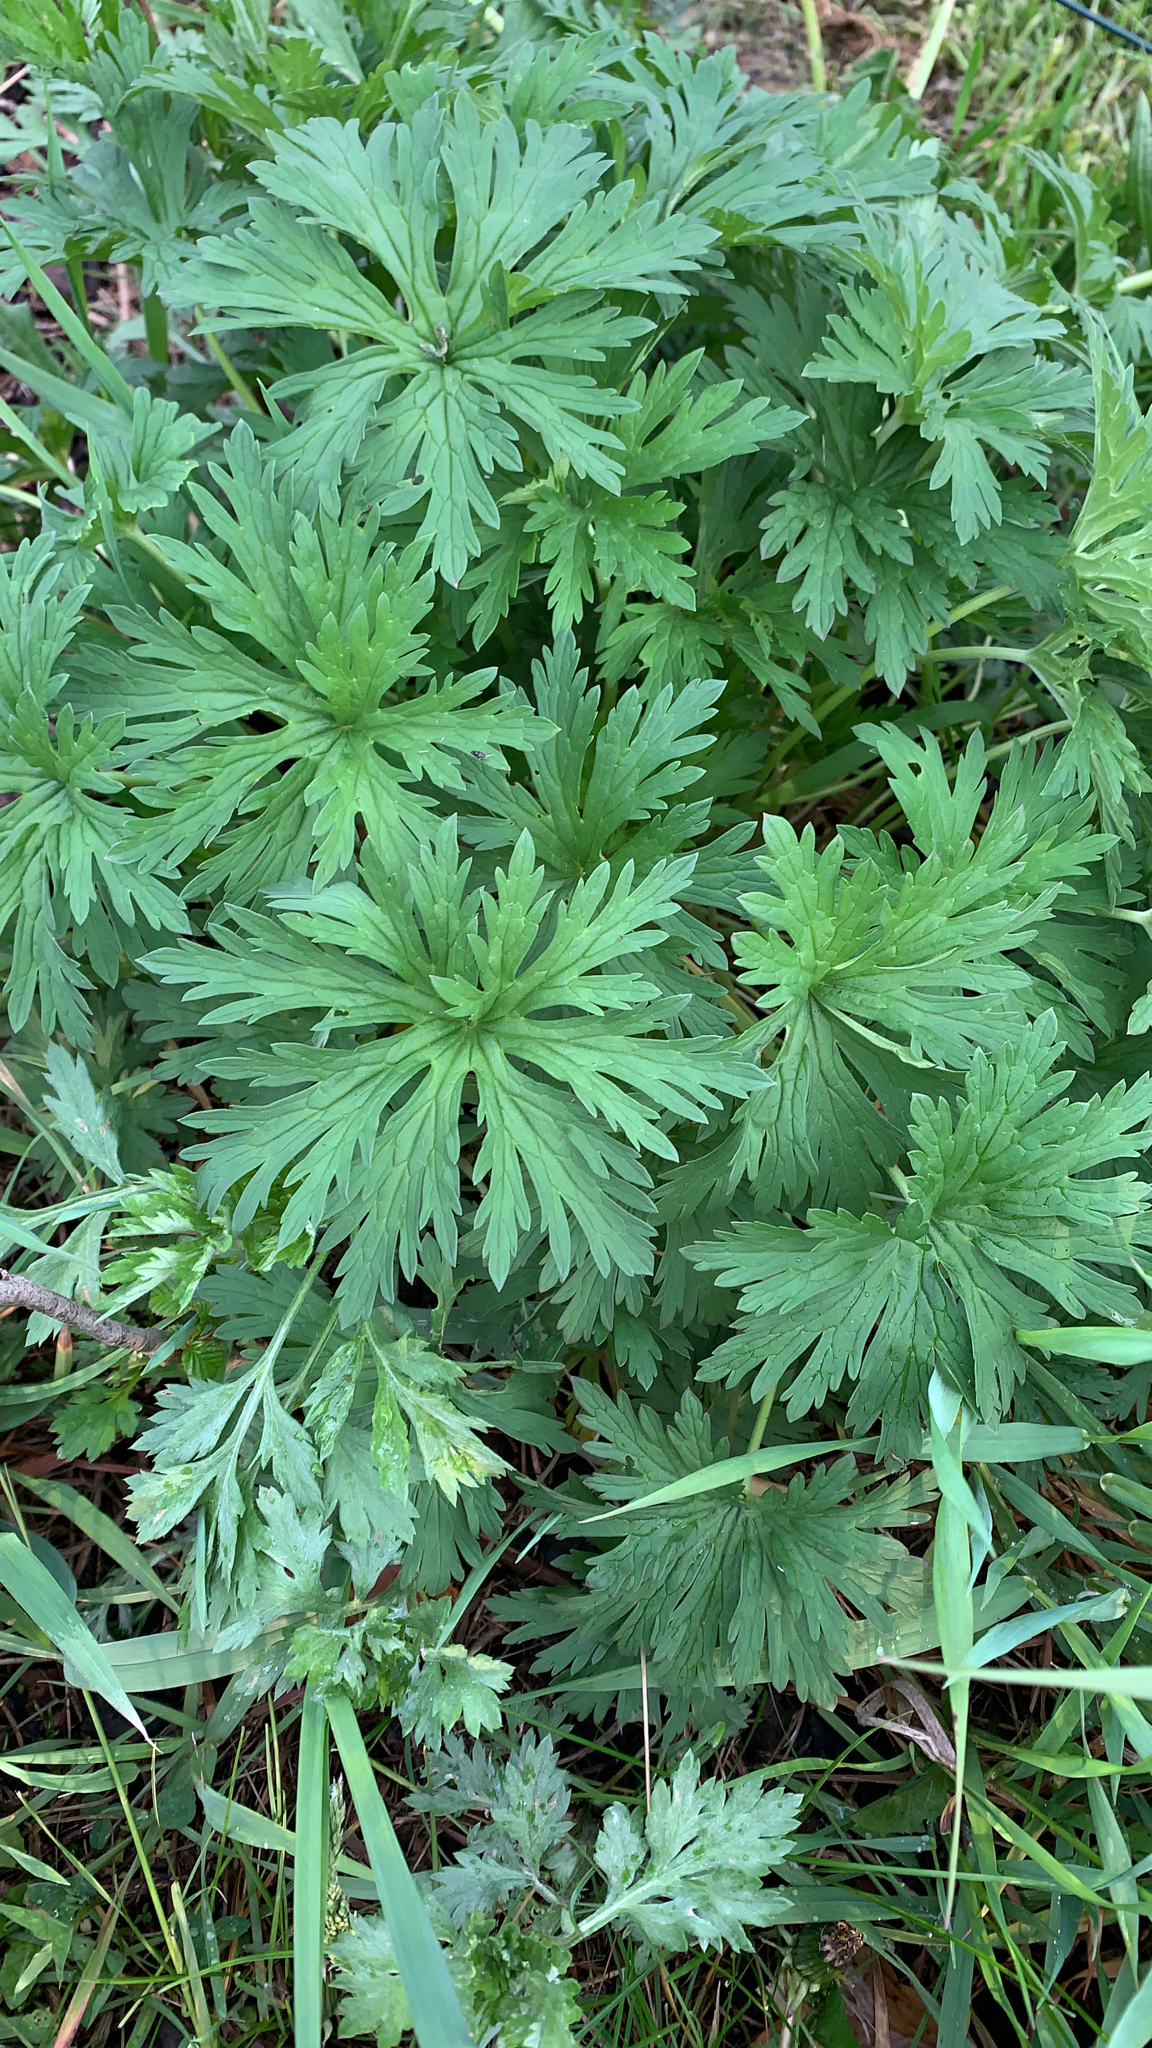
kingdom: Plantae
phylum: Tracheophyta
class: Magnoliopsida
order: Geraniales
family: Geraniaceae
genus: Geranium
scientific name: Geranium pratense
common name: Meadow crane's-bill
